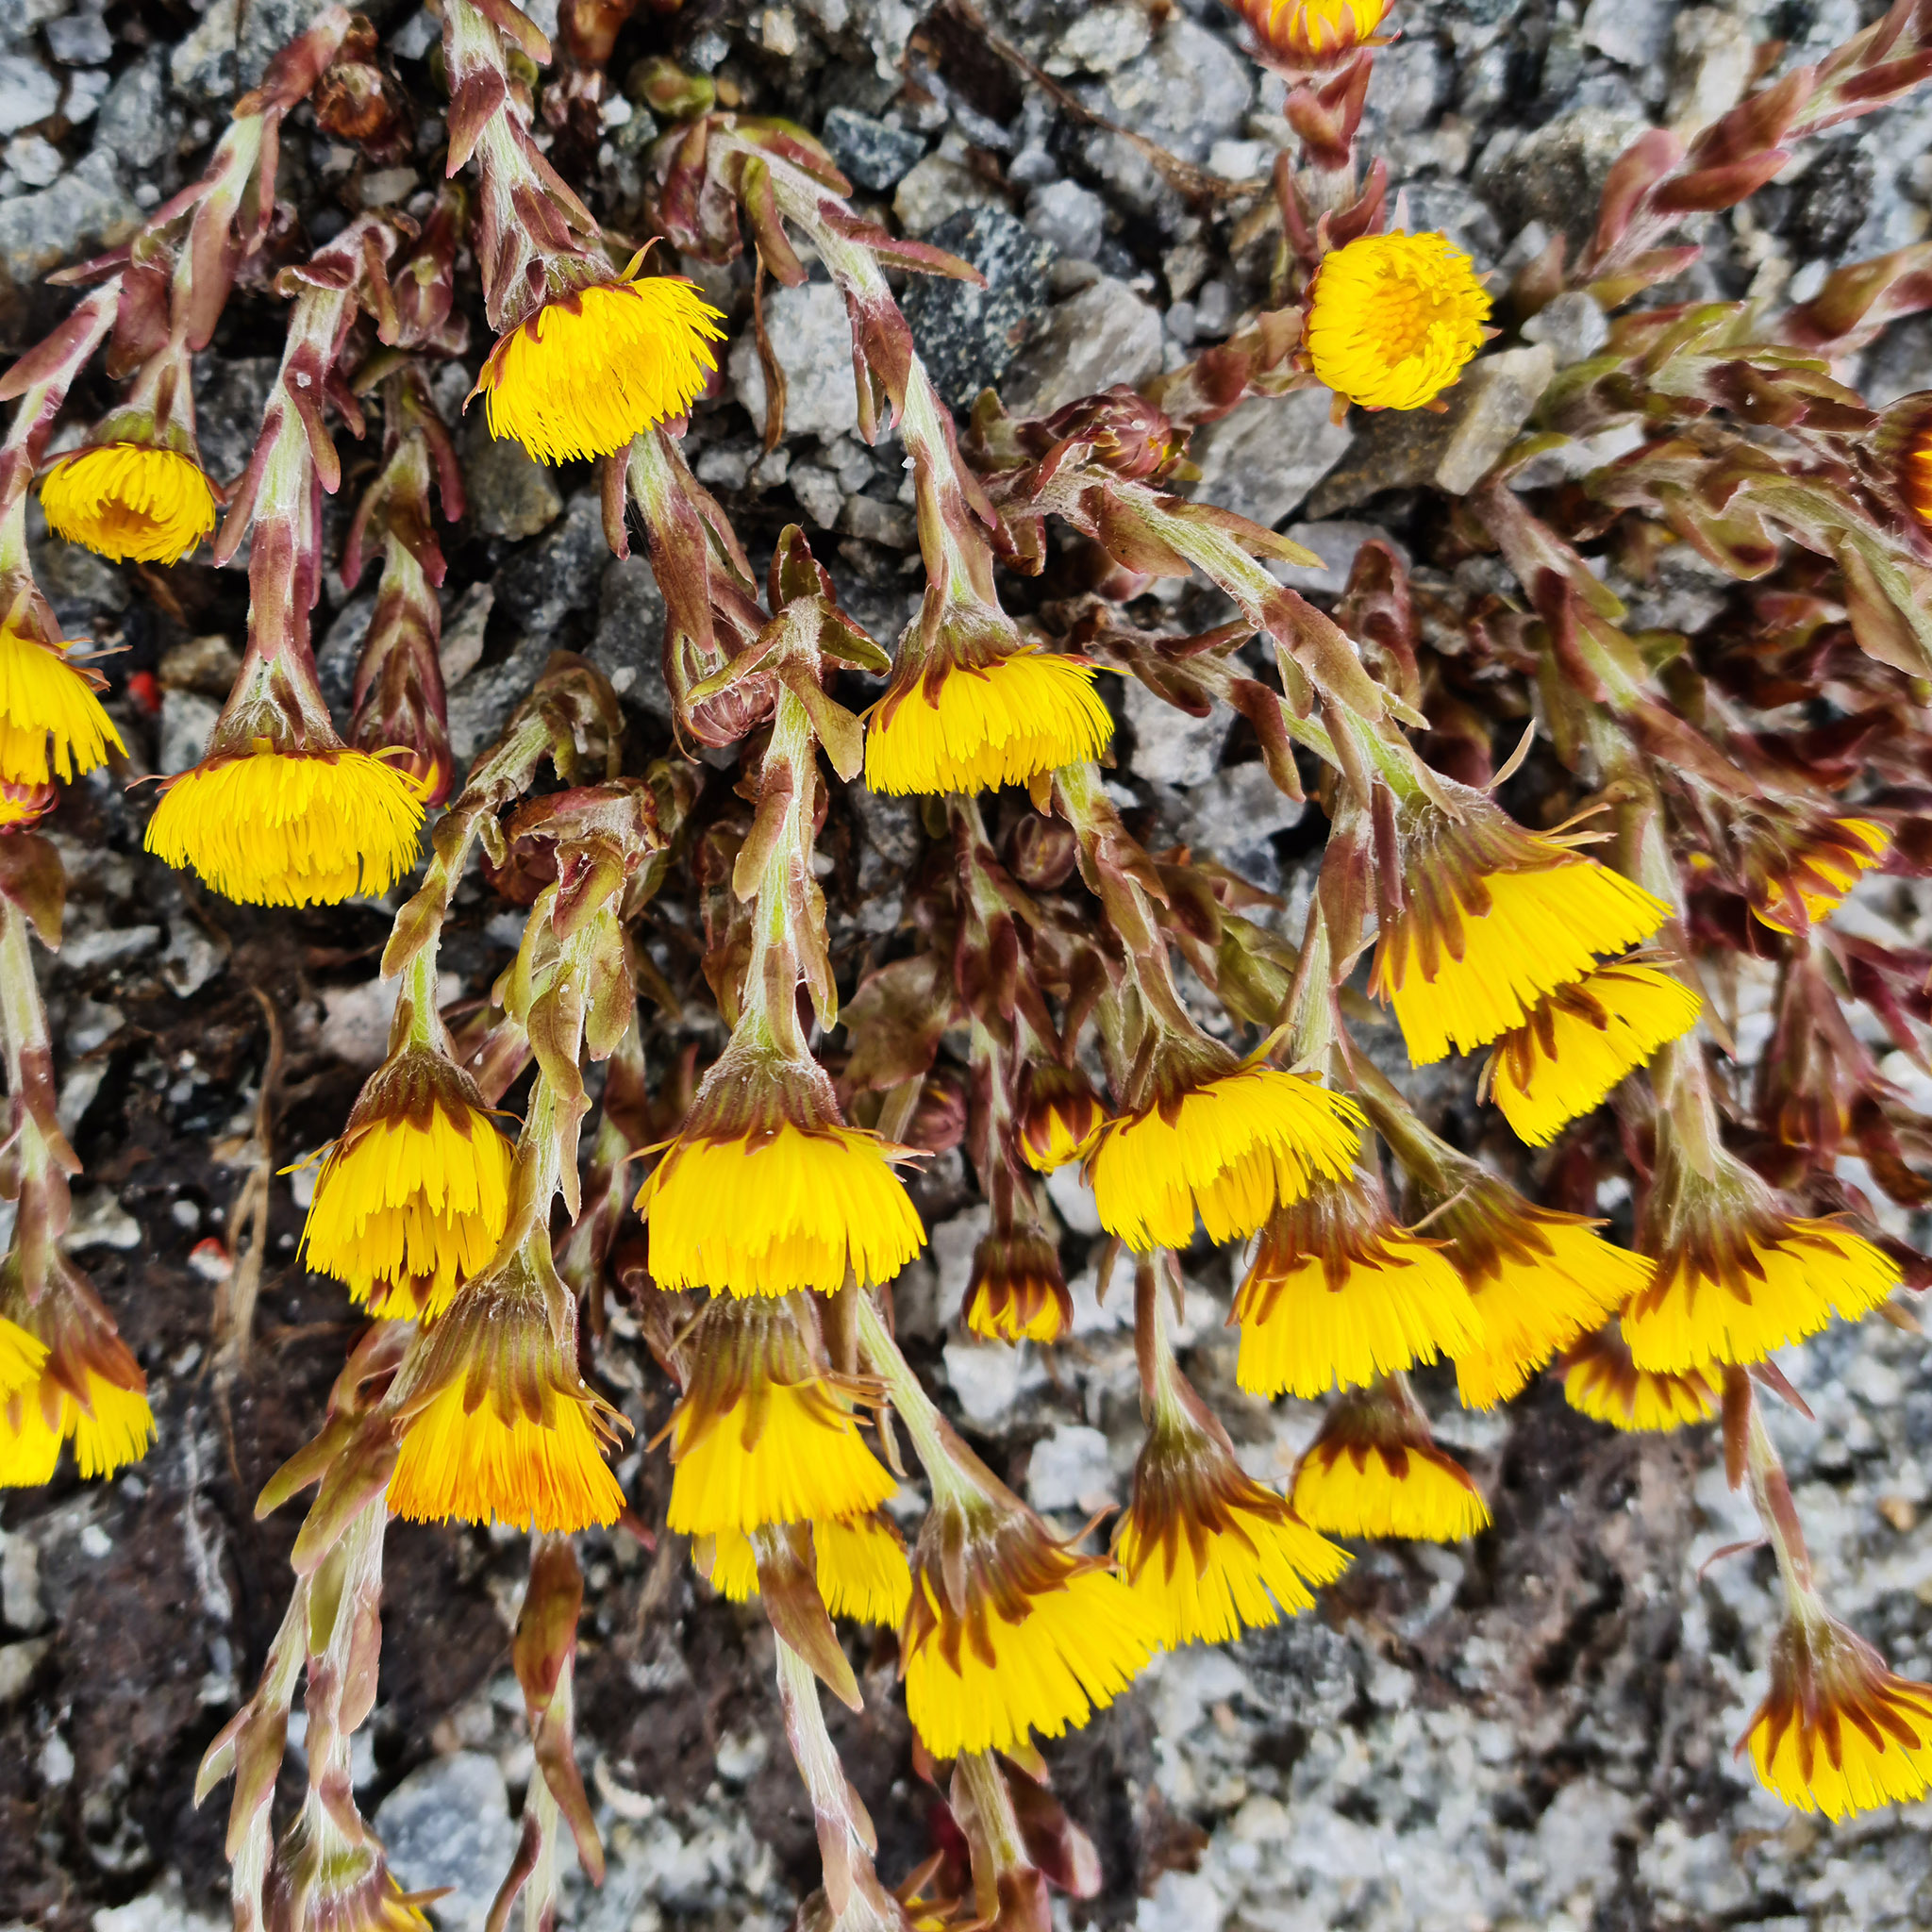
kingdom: Plantae
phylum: Tracheophyta
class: Magnoliopsida
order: Asterales
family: Asteraceae
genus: Tussilago
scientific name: Tussilago farfara
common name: Coltsfoot
